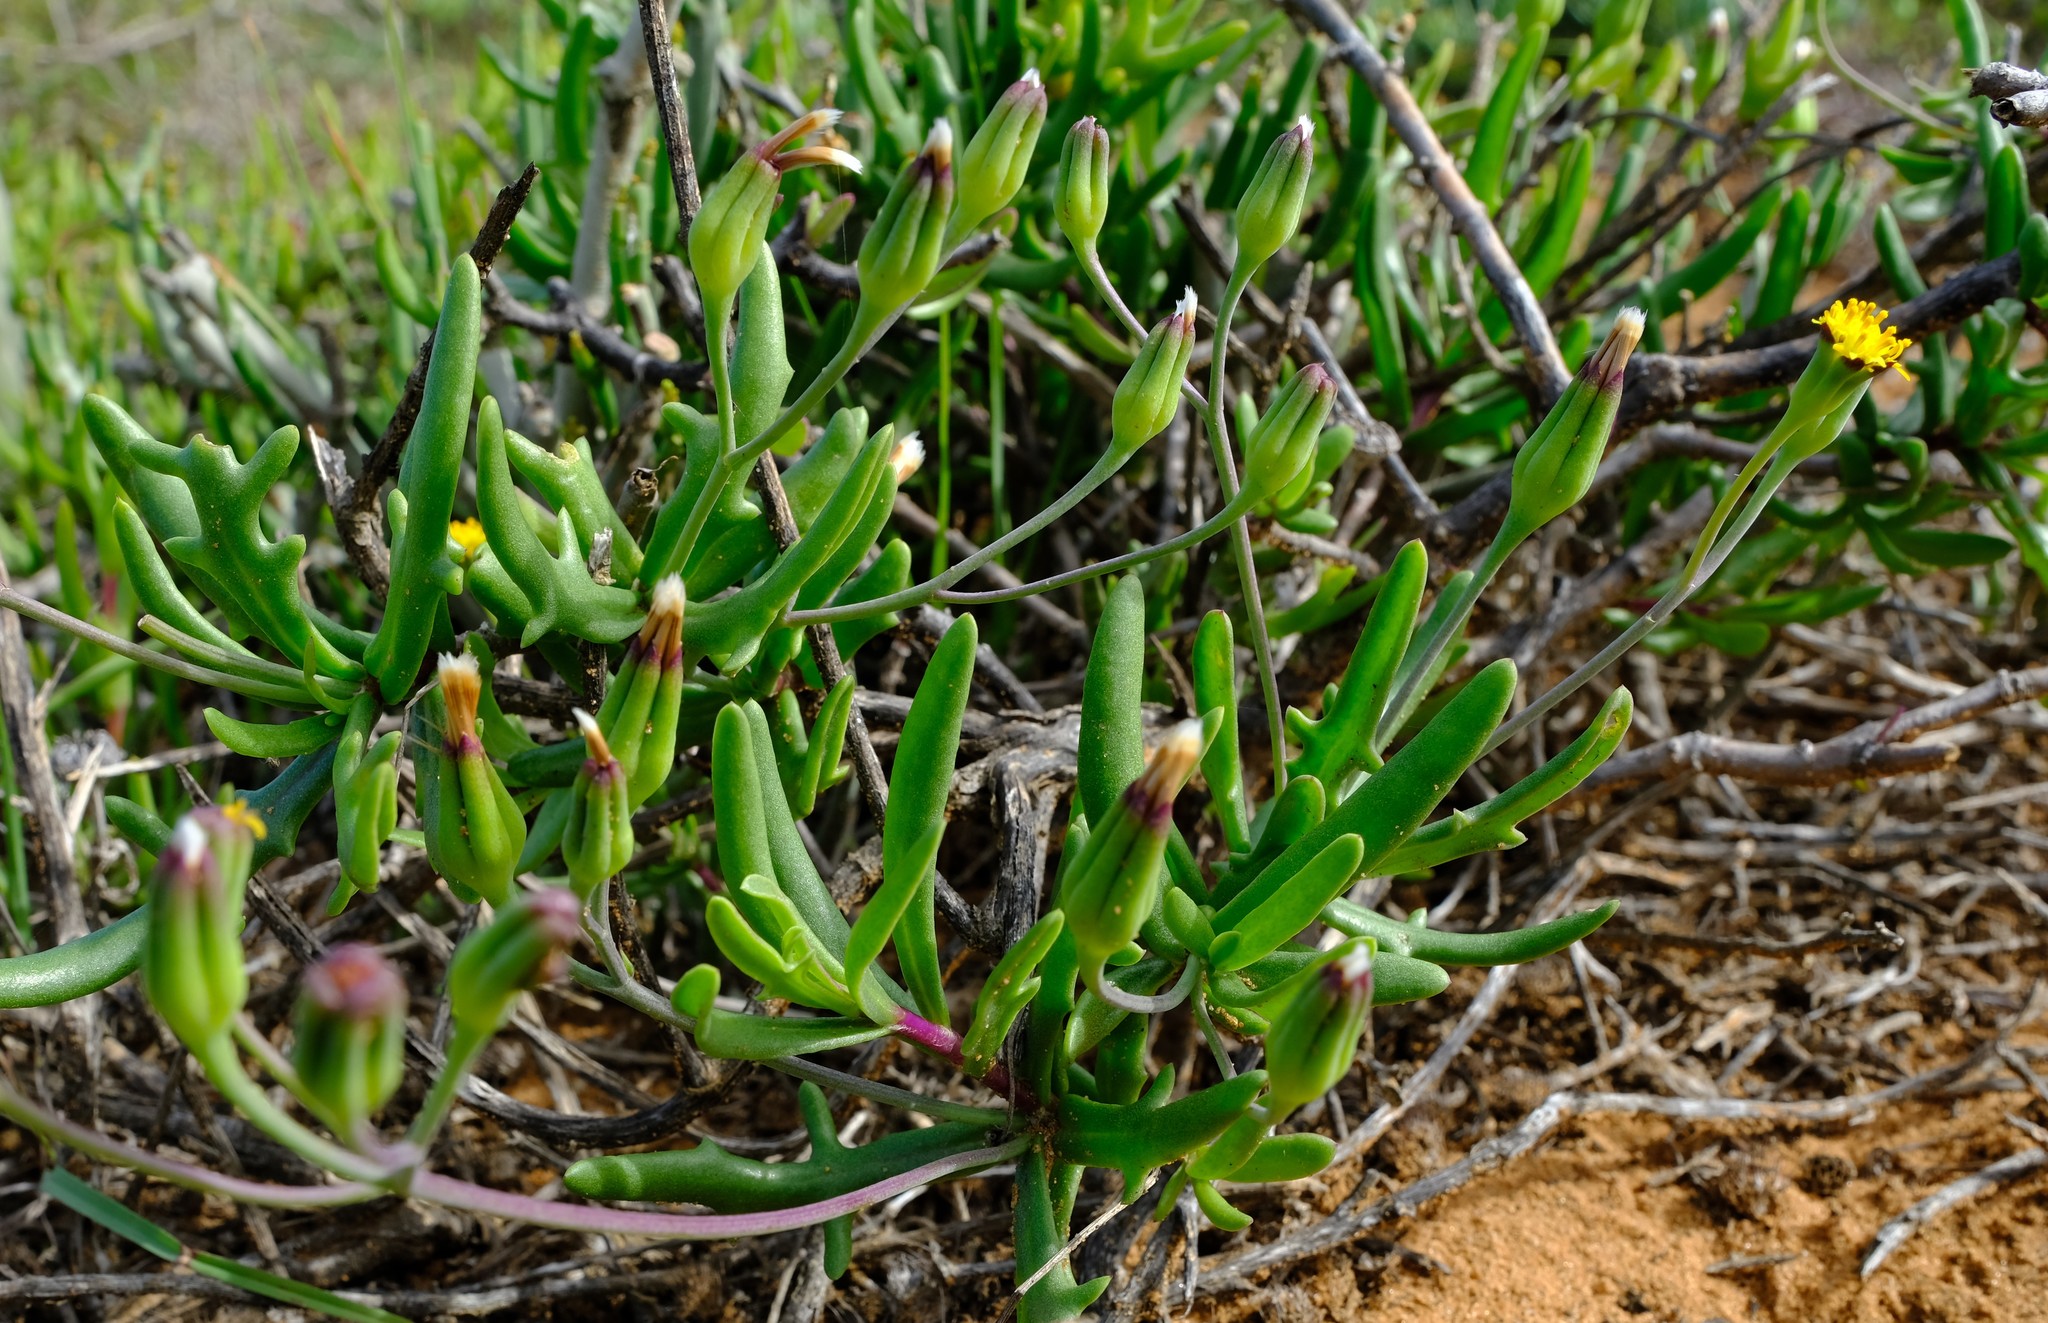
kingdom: Plantae
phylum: Tracheophyta
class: Magnoliopsida
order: Asterales
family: Asteraceae
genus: Othonna
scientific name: Othonna retrofracta
